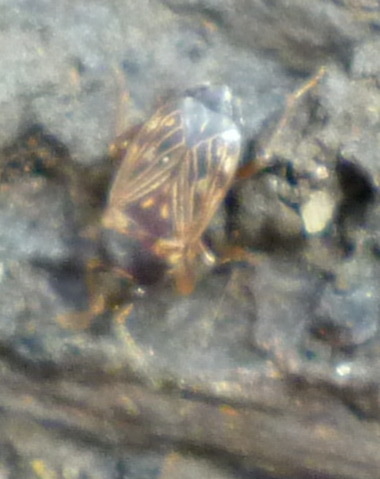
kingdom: Animalia
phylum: Arthropoda
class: Insecta
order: Hemiptera
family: Rhyparochromidae
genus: Cryphula
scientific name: Cryphula trimaculata
